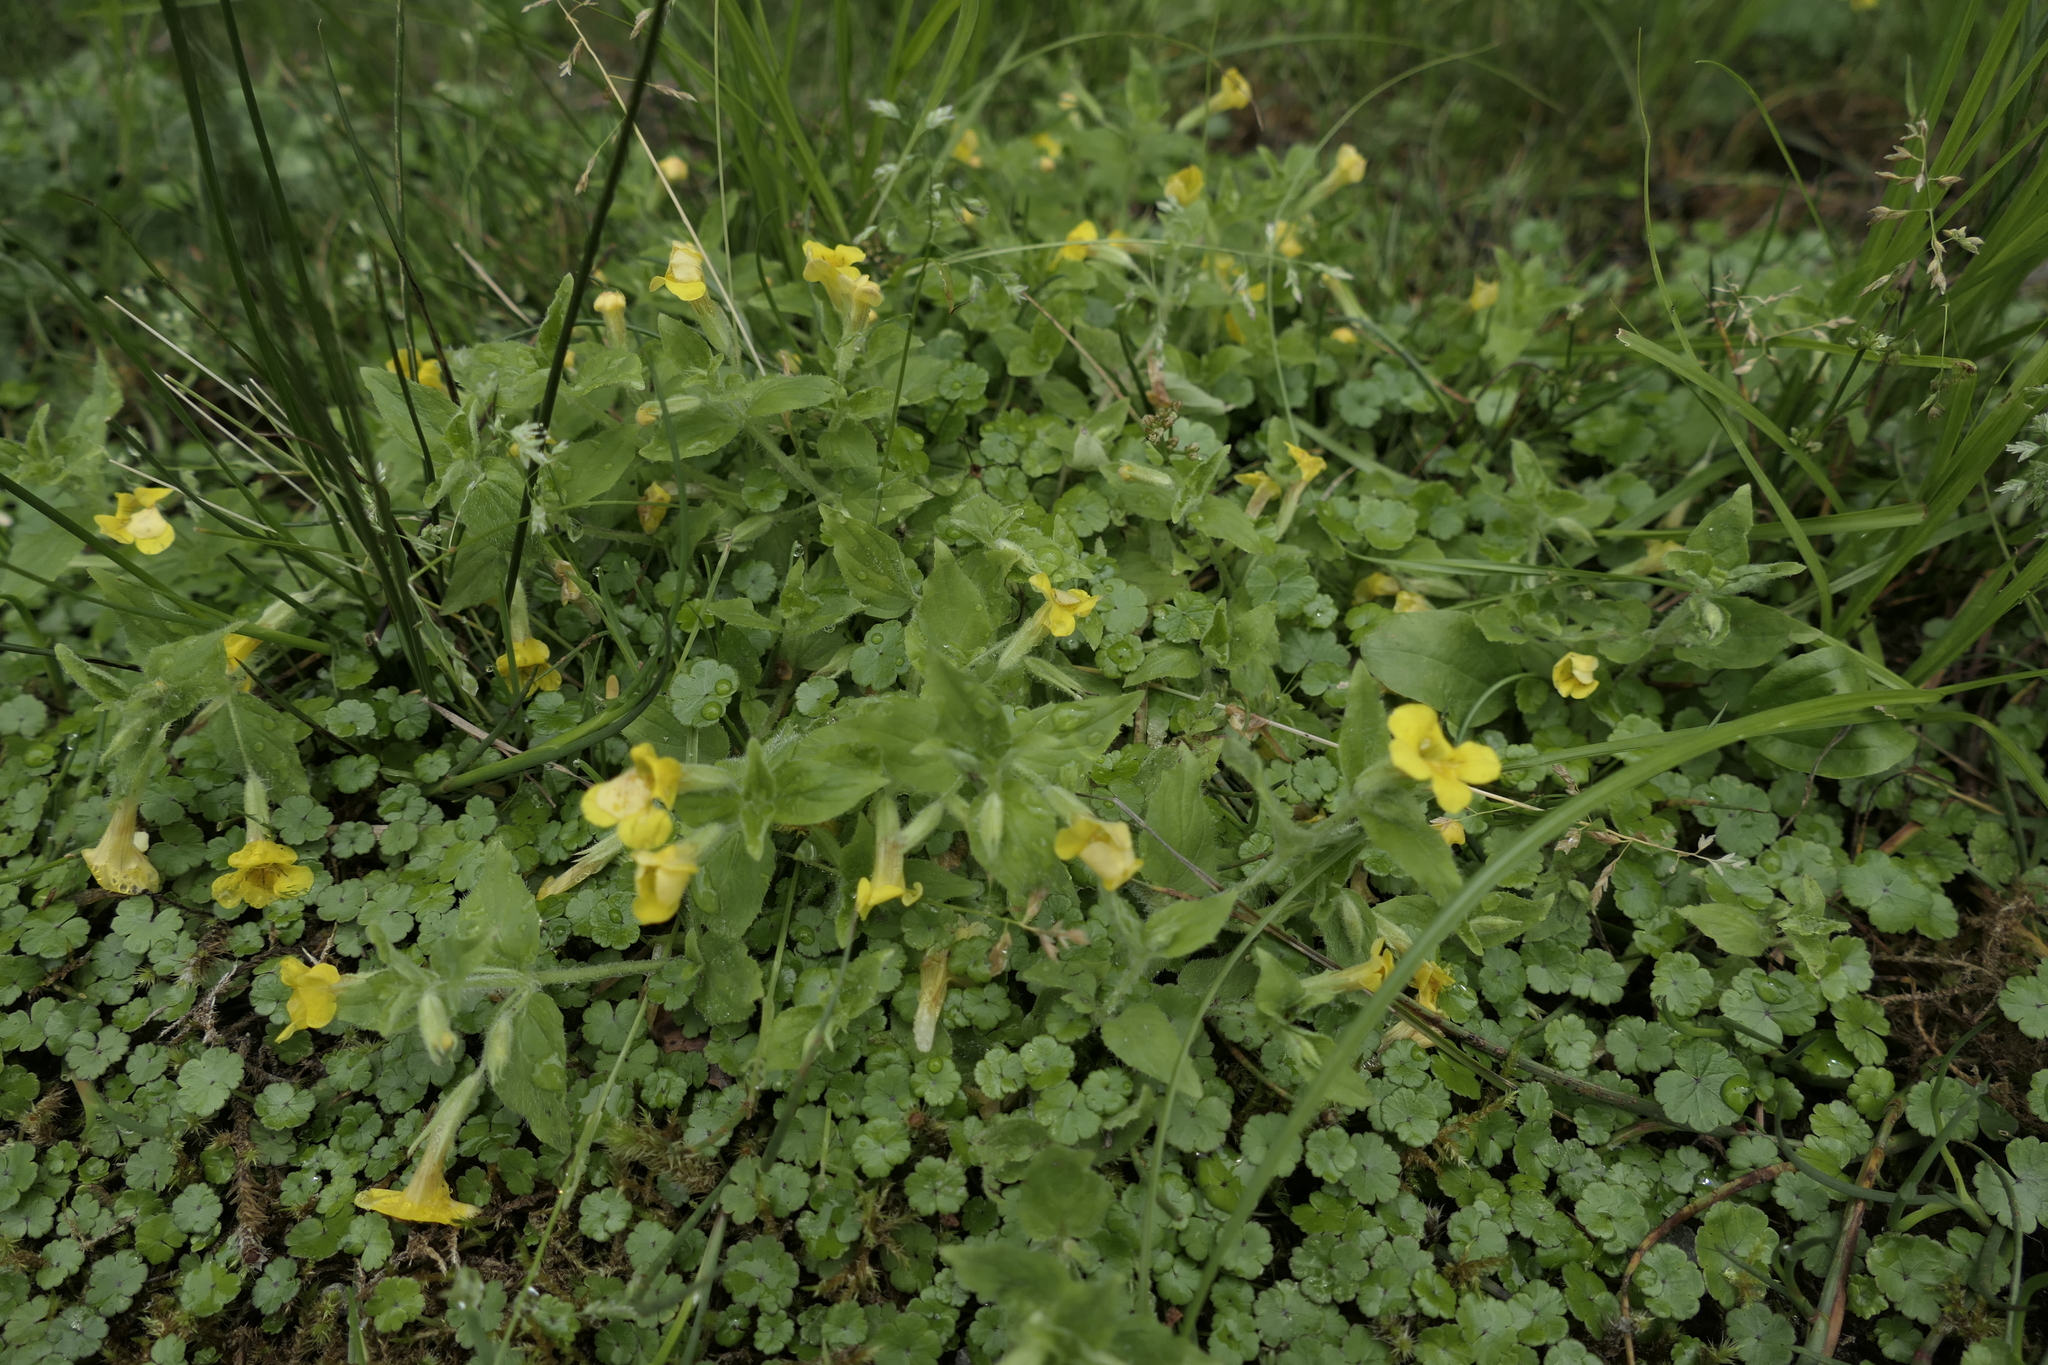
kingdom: Plantae
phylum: Tracheophyta
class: Magnoliopsida
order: Lamiales
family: Phrymaceae
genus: Erythranthe
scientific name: Erythranthe moschata
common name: Muskflower
